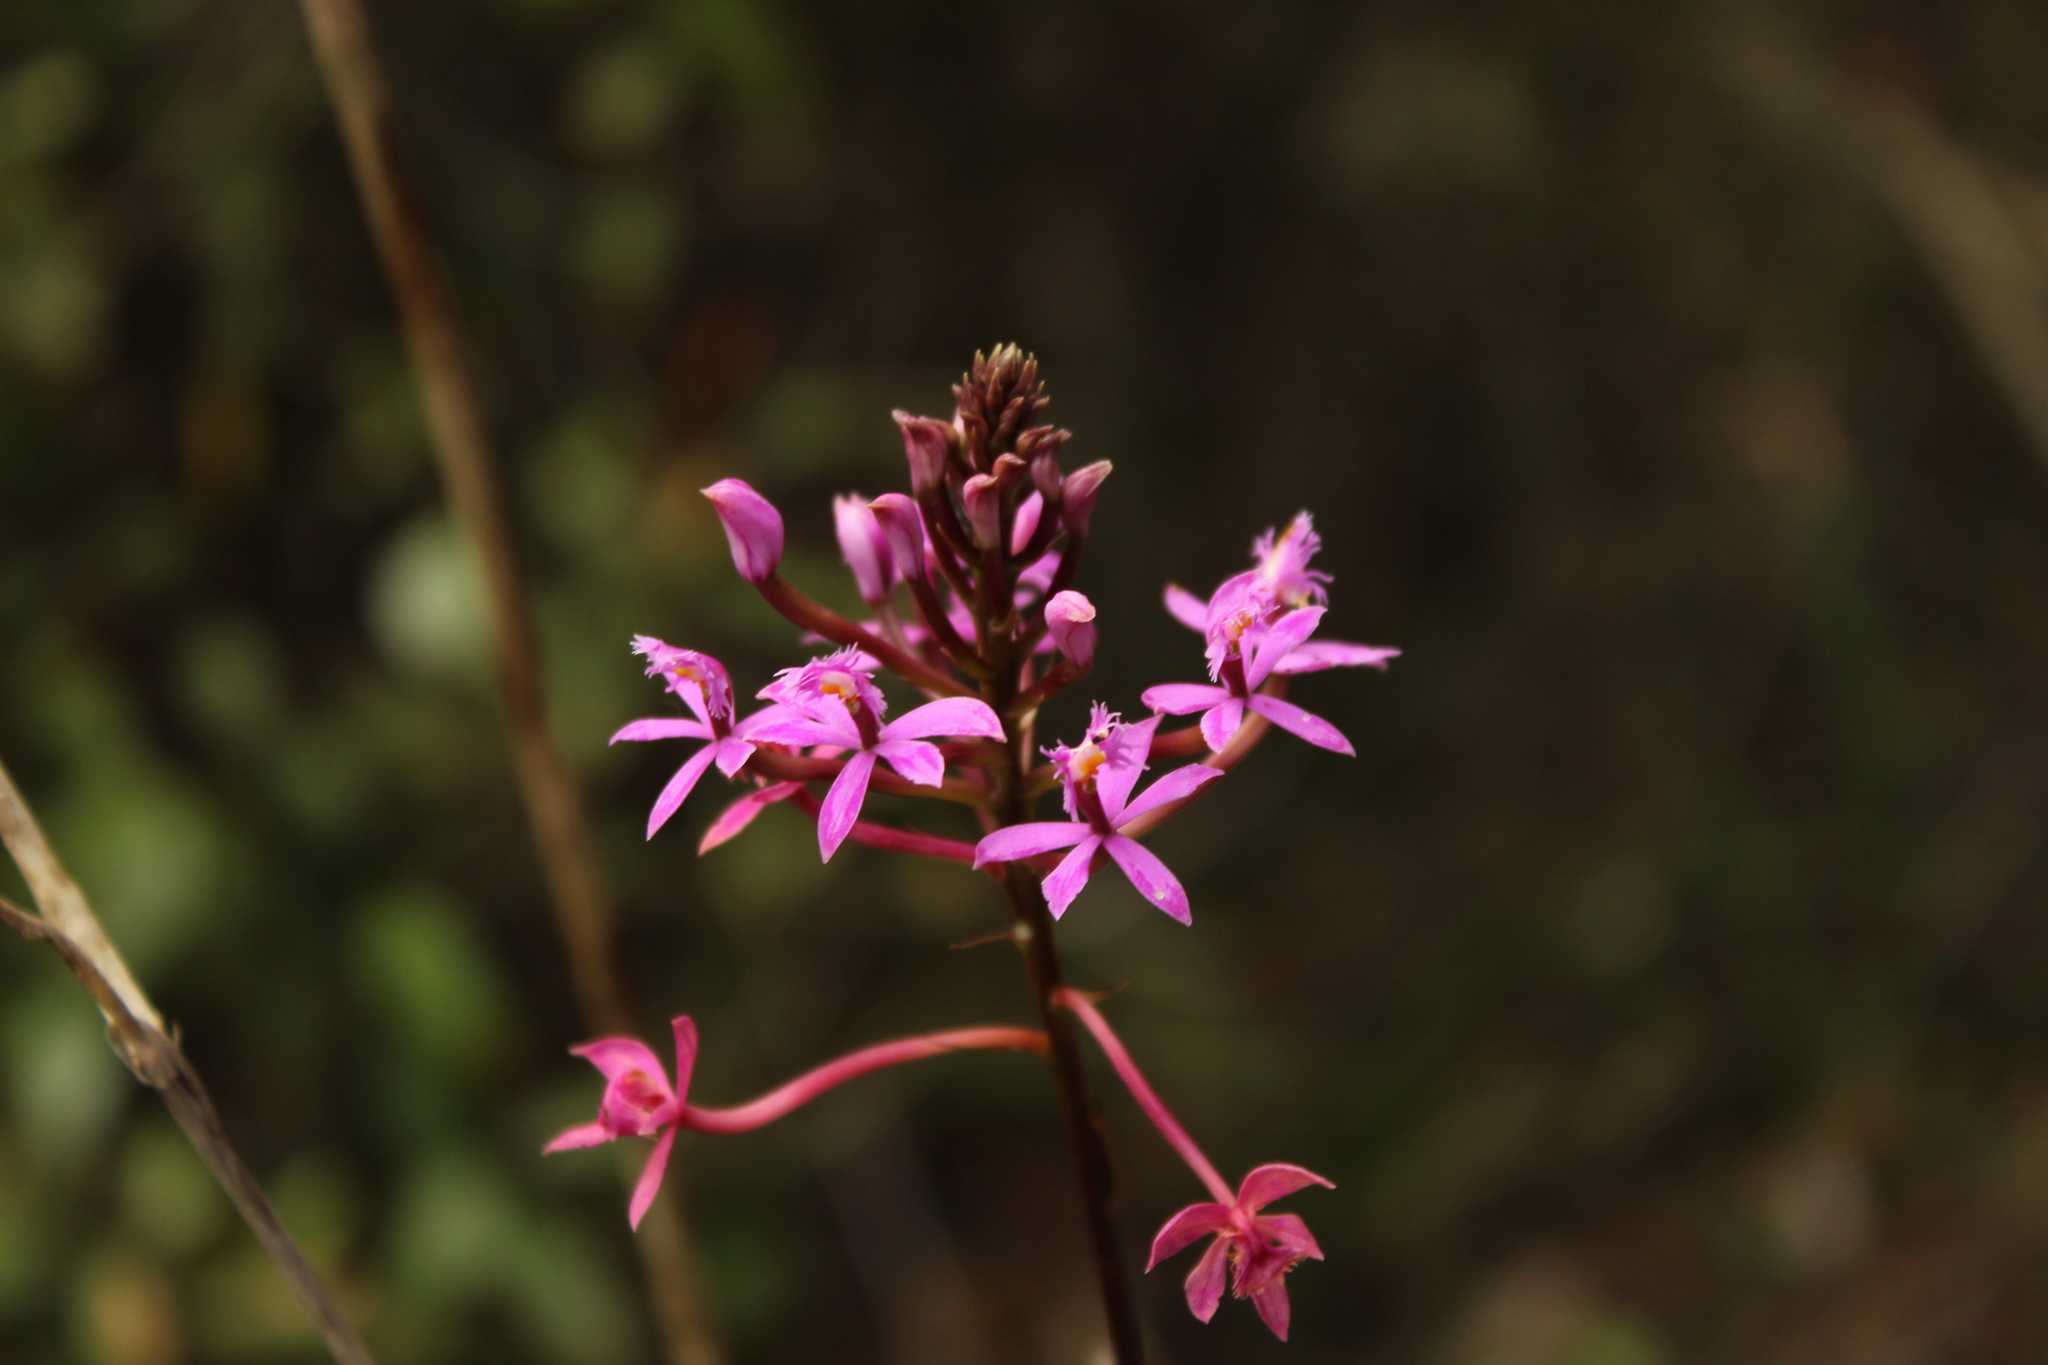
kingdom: Plantae
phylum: Tracheophyta
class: Liliopsida
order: Asparagales
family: Orchidaceae
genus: Epidendrum
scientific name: Epidendrum arachnoglossum
